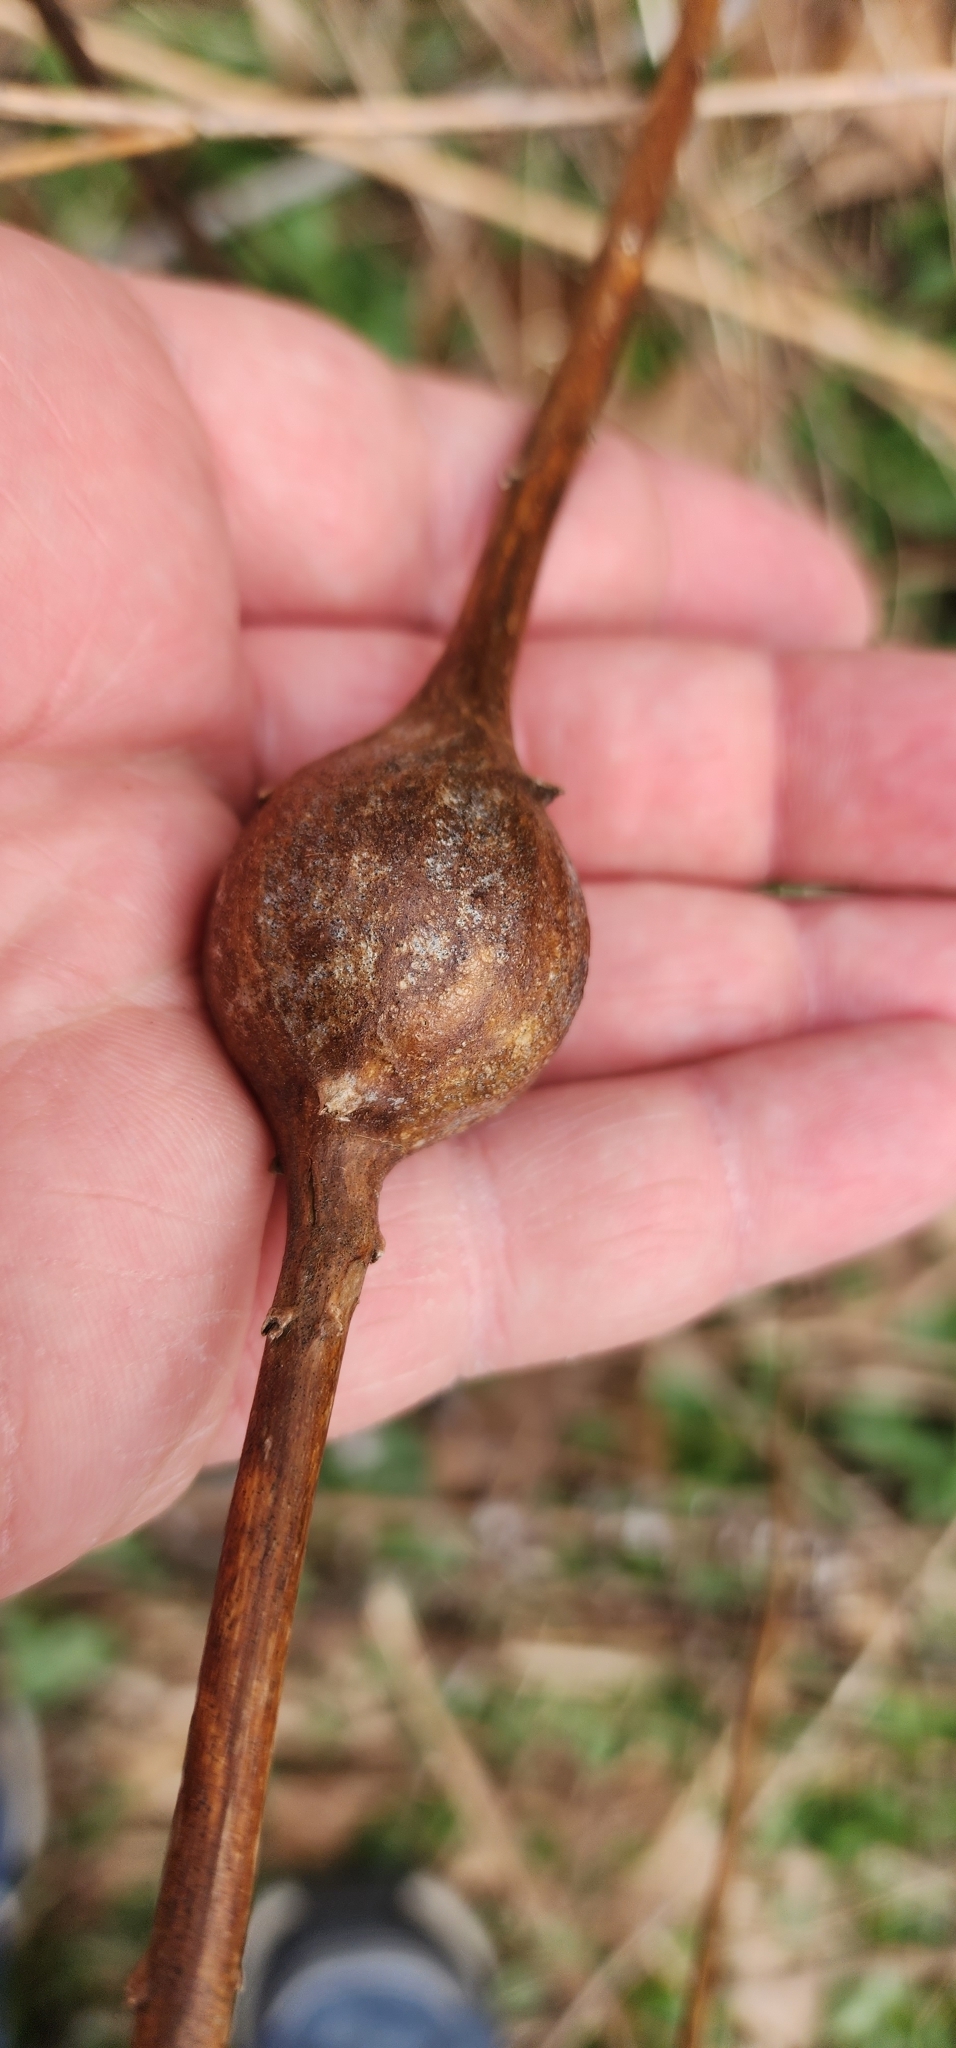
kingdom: Animalia
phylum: Arthropoda
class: Insecta
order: Diptera
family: Tephritidae
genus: Eurosta
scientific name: Eurosta solidaginis
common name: Goldenrod gall fly
